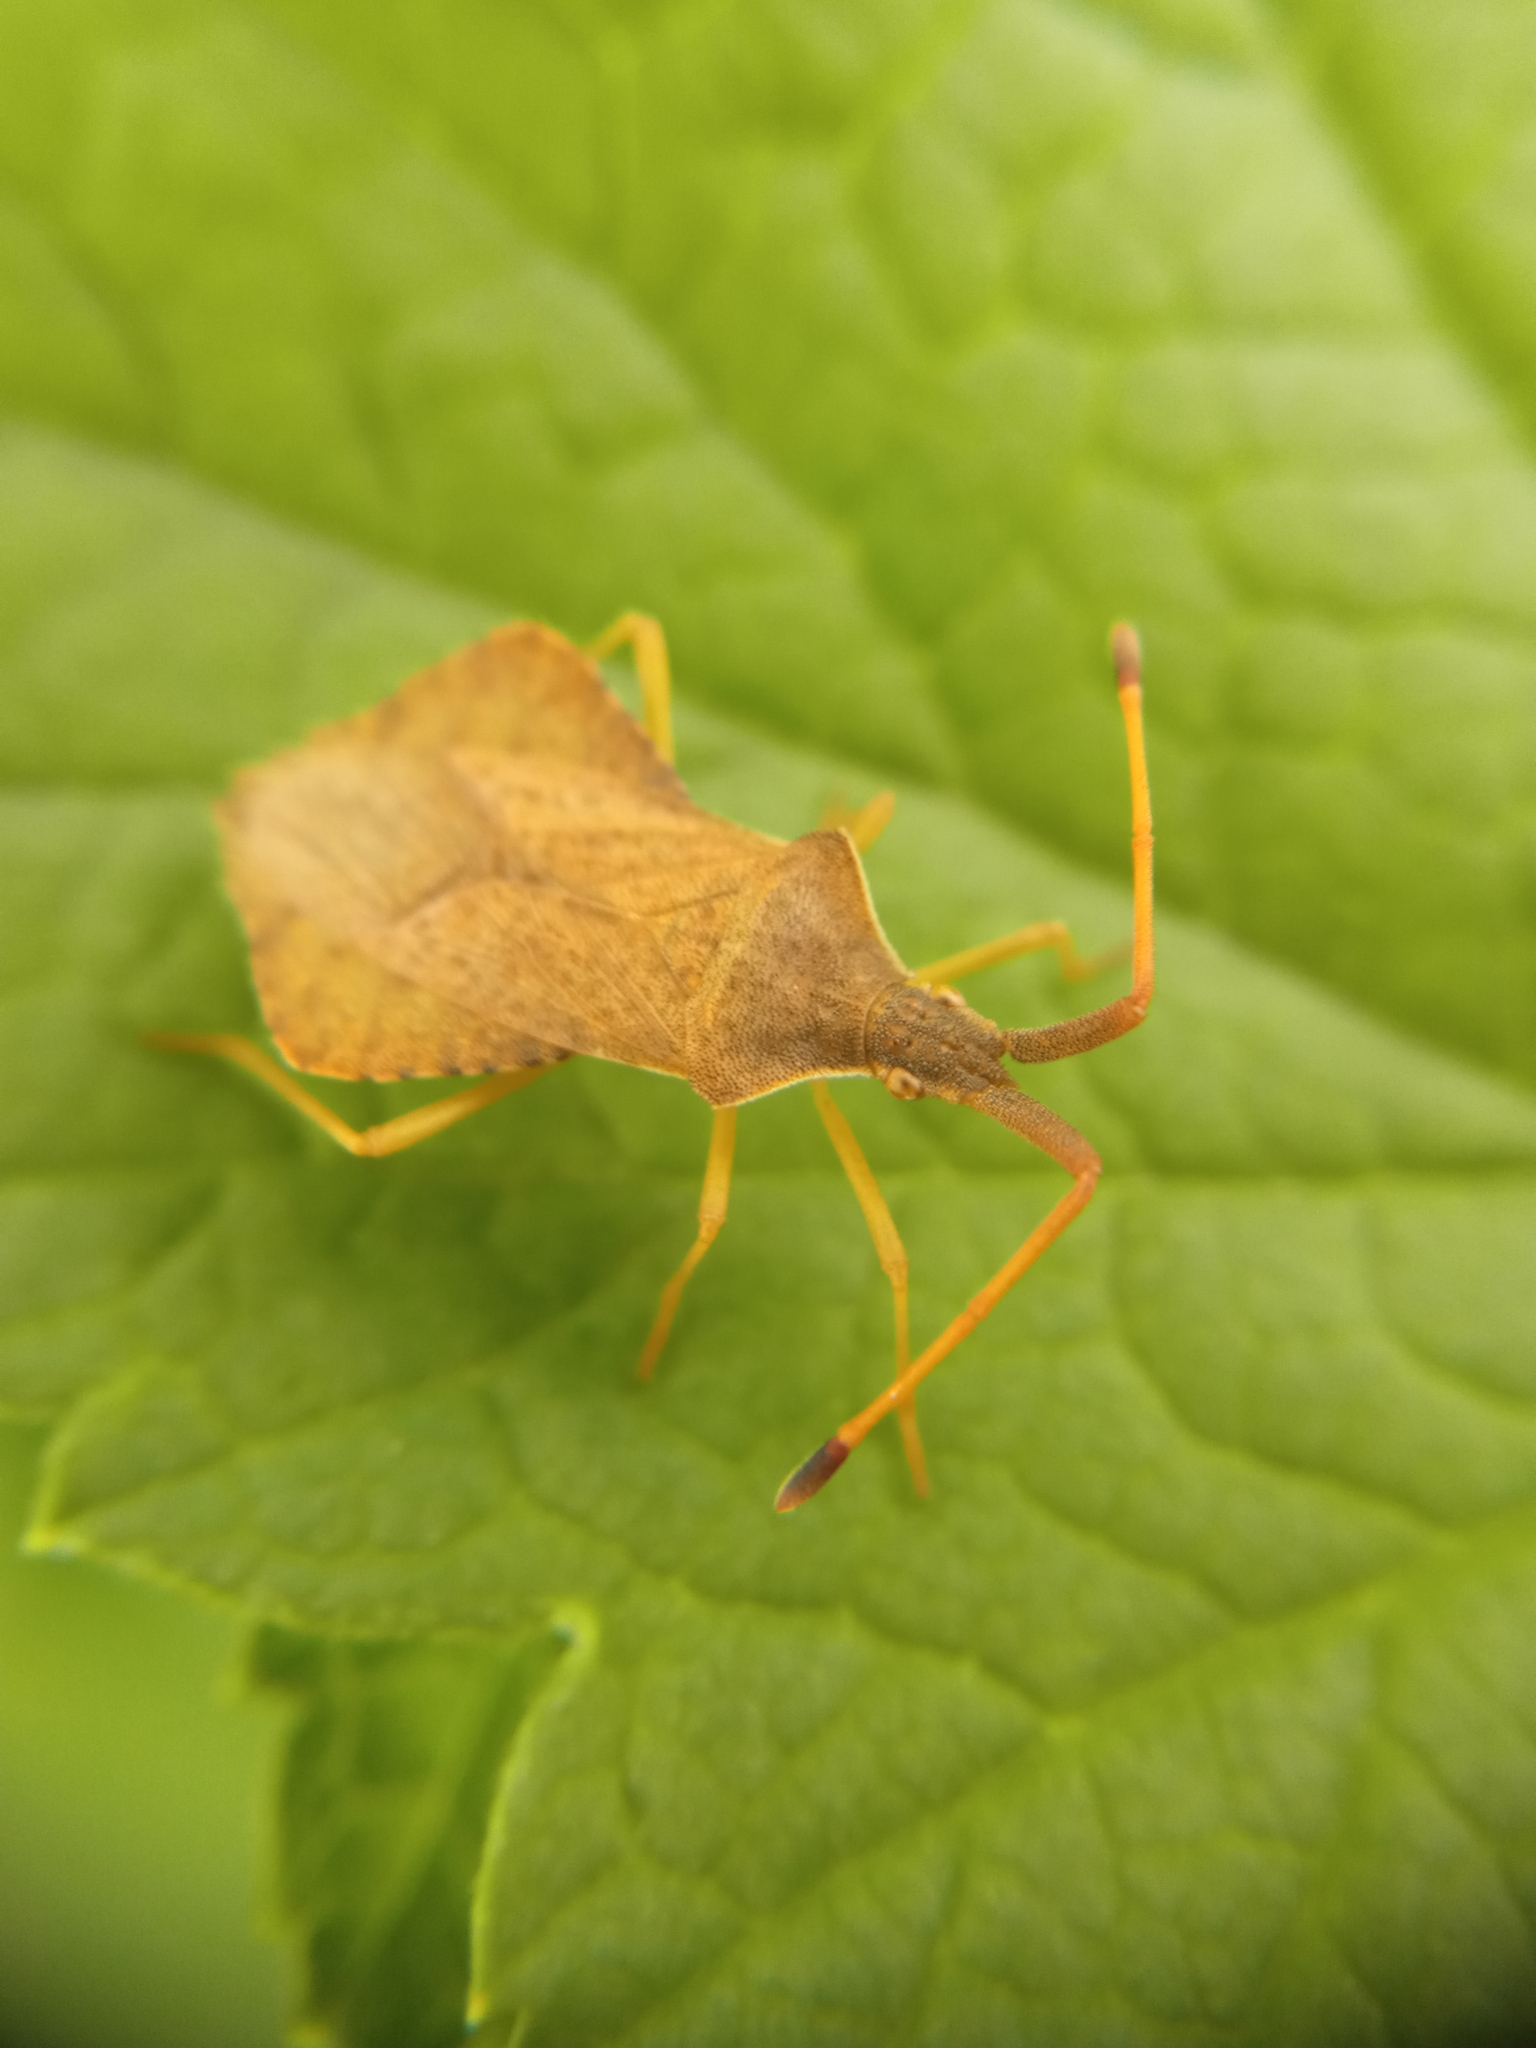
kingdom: Animalia
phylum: Arthropoda
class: Insecta
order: Hemiptera
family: Coreidae
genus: Syromastus
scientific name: Syromastus rhombeus
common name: Rhombic leatherbug
